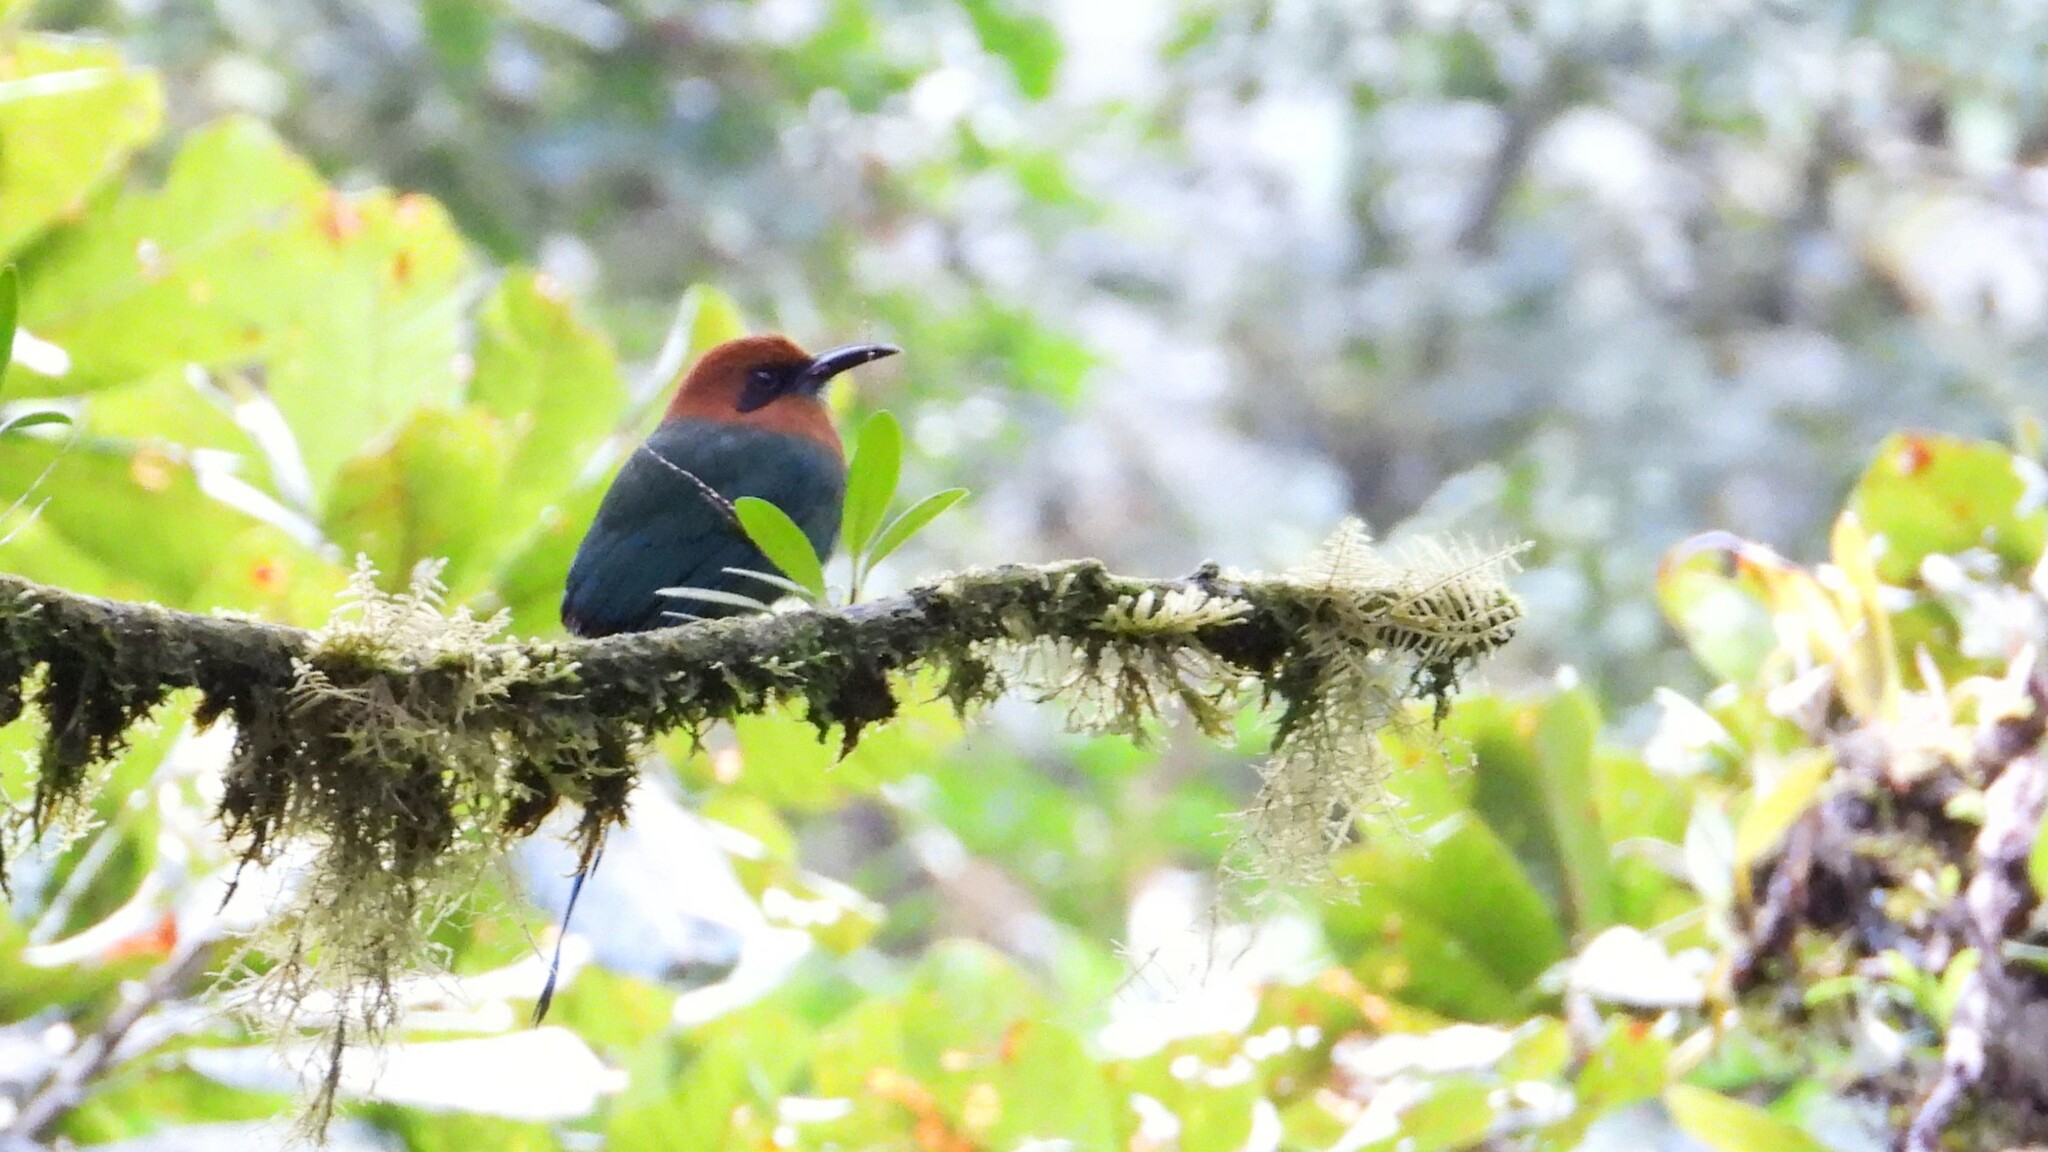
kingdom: Animalia
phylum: Chordata
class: Aves
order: Coraciiformes
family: Momotidae
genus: Electron
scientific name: Electron platyrhynchum
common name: Broad-billed motmot
